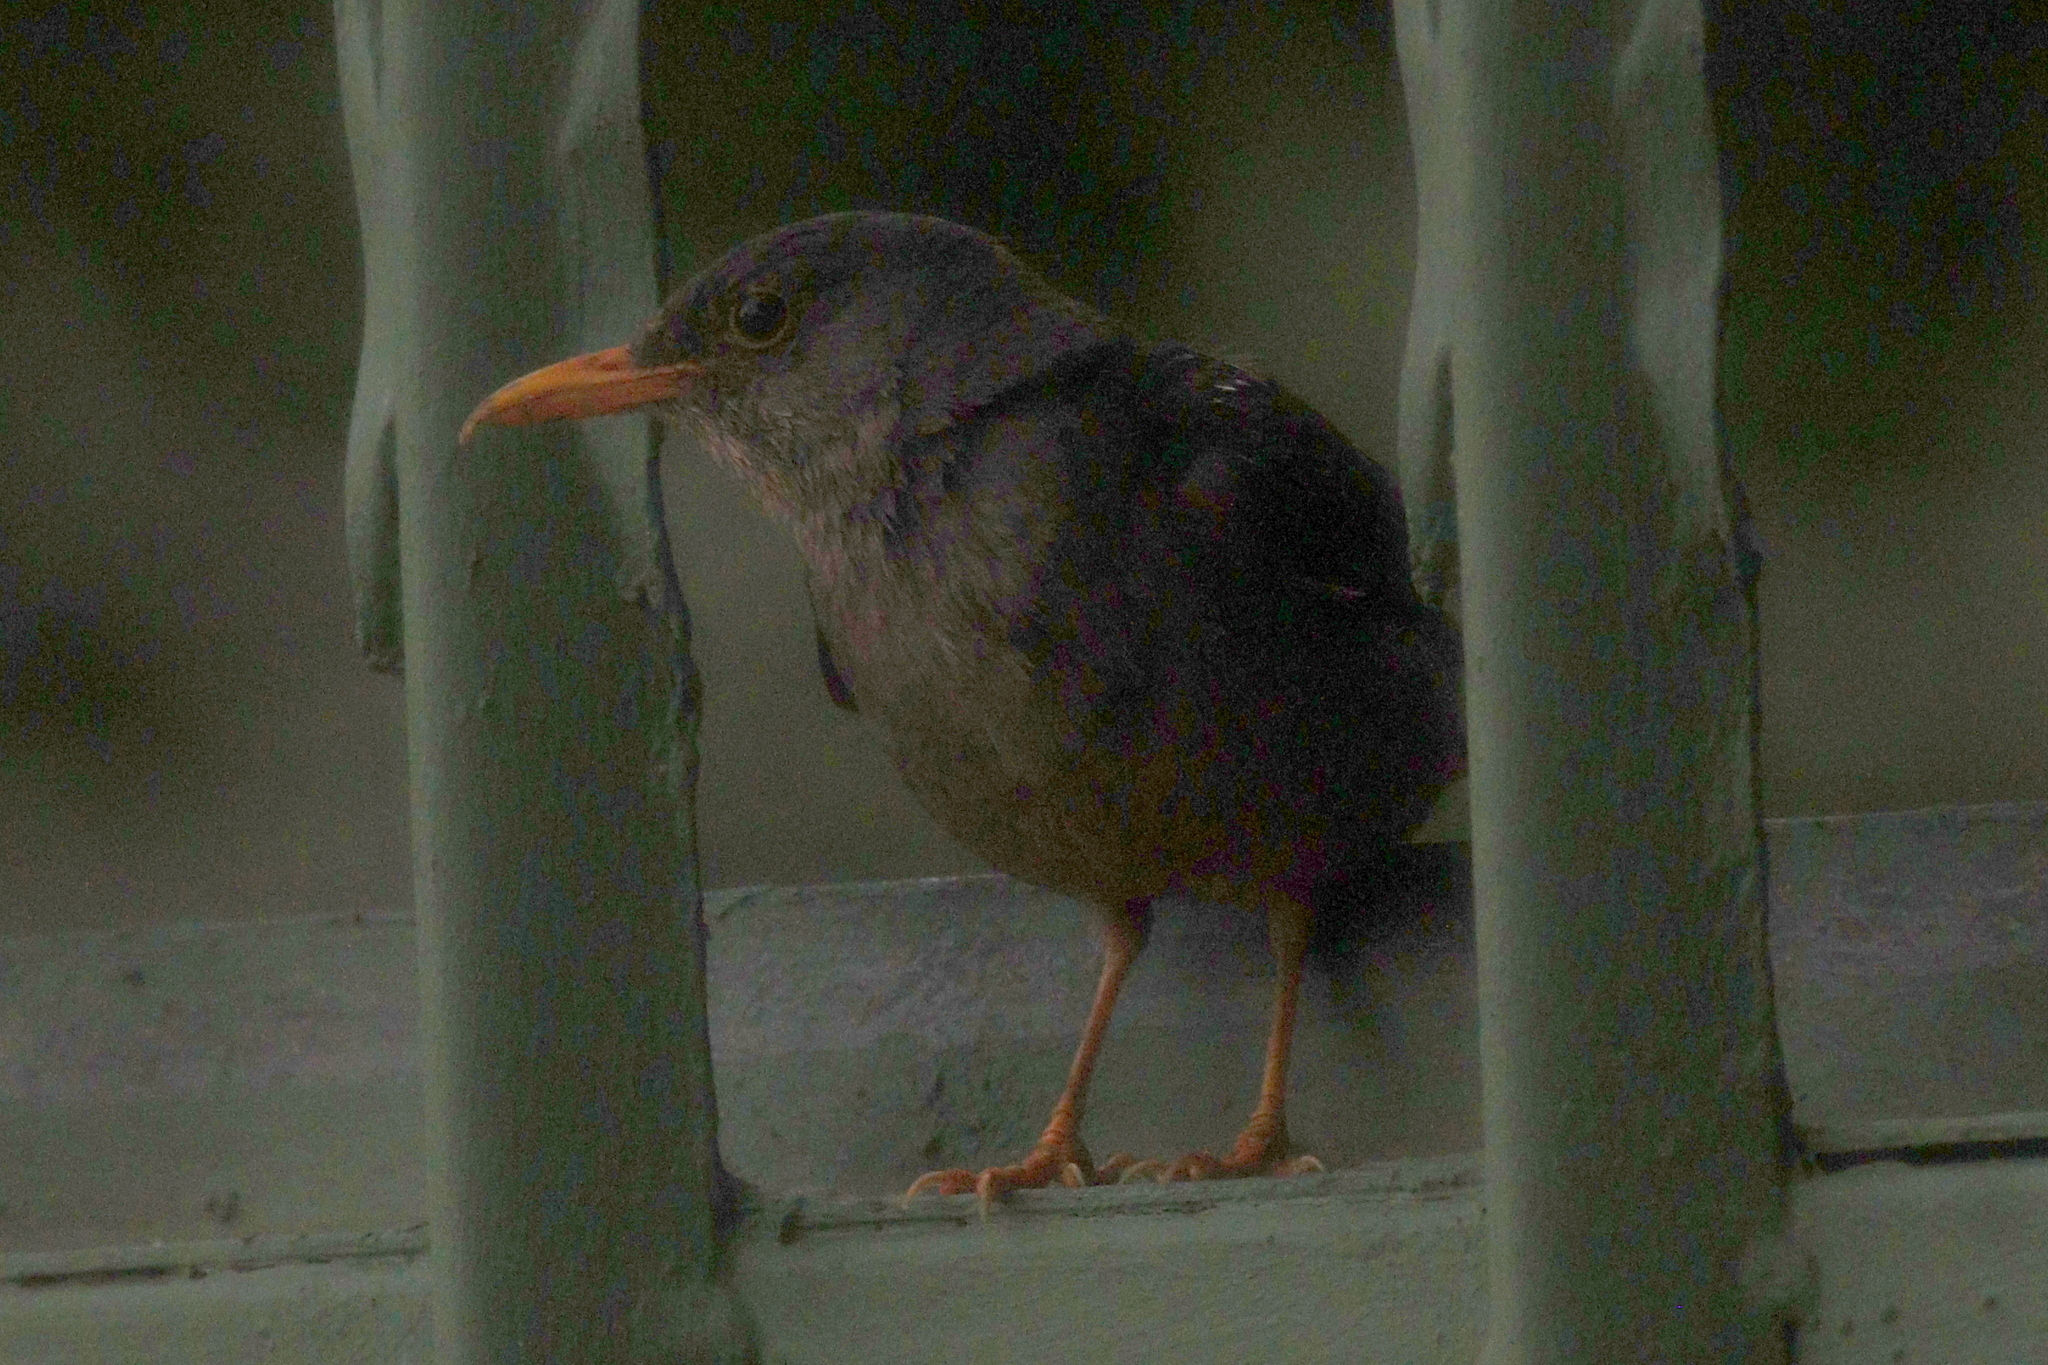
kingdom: Animalia
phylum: Chordata
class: Aves
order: Passeriformes
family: Turdidae
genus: Turdus
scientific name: Turdus smithi
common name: Karoo thrush
